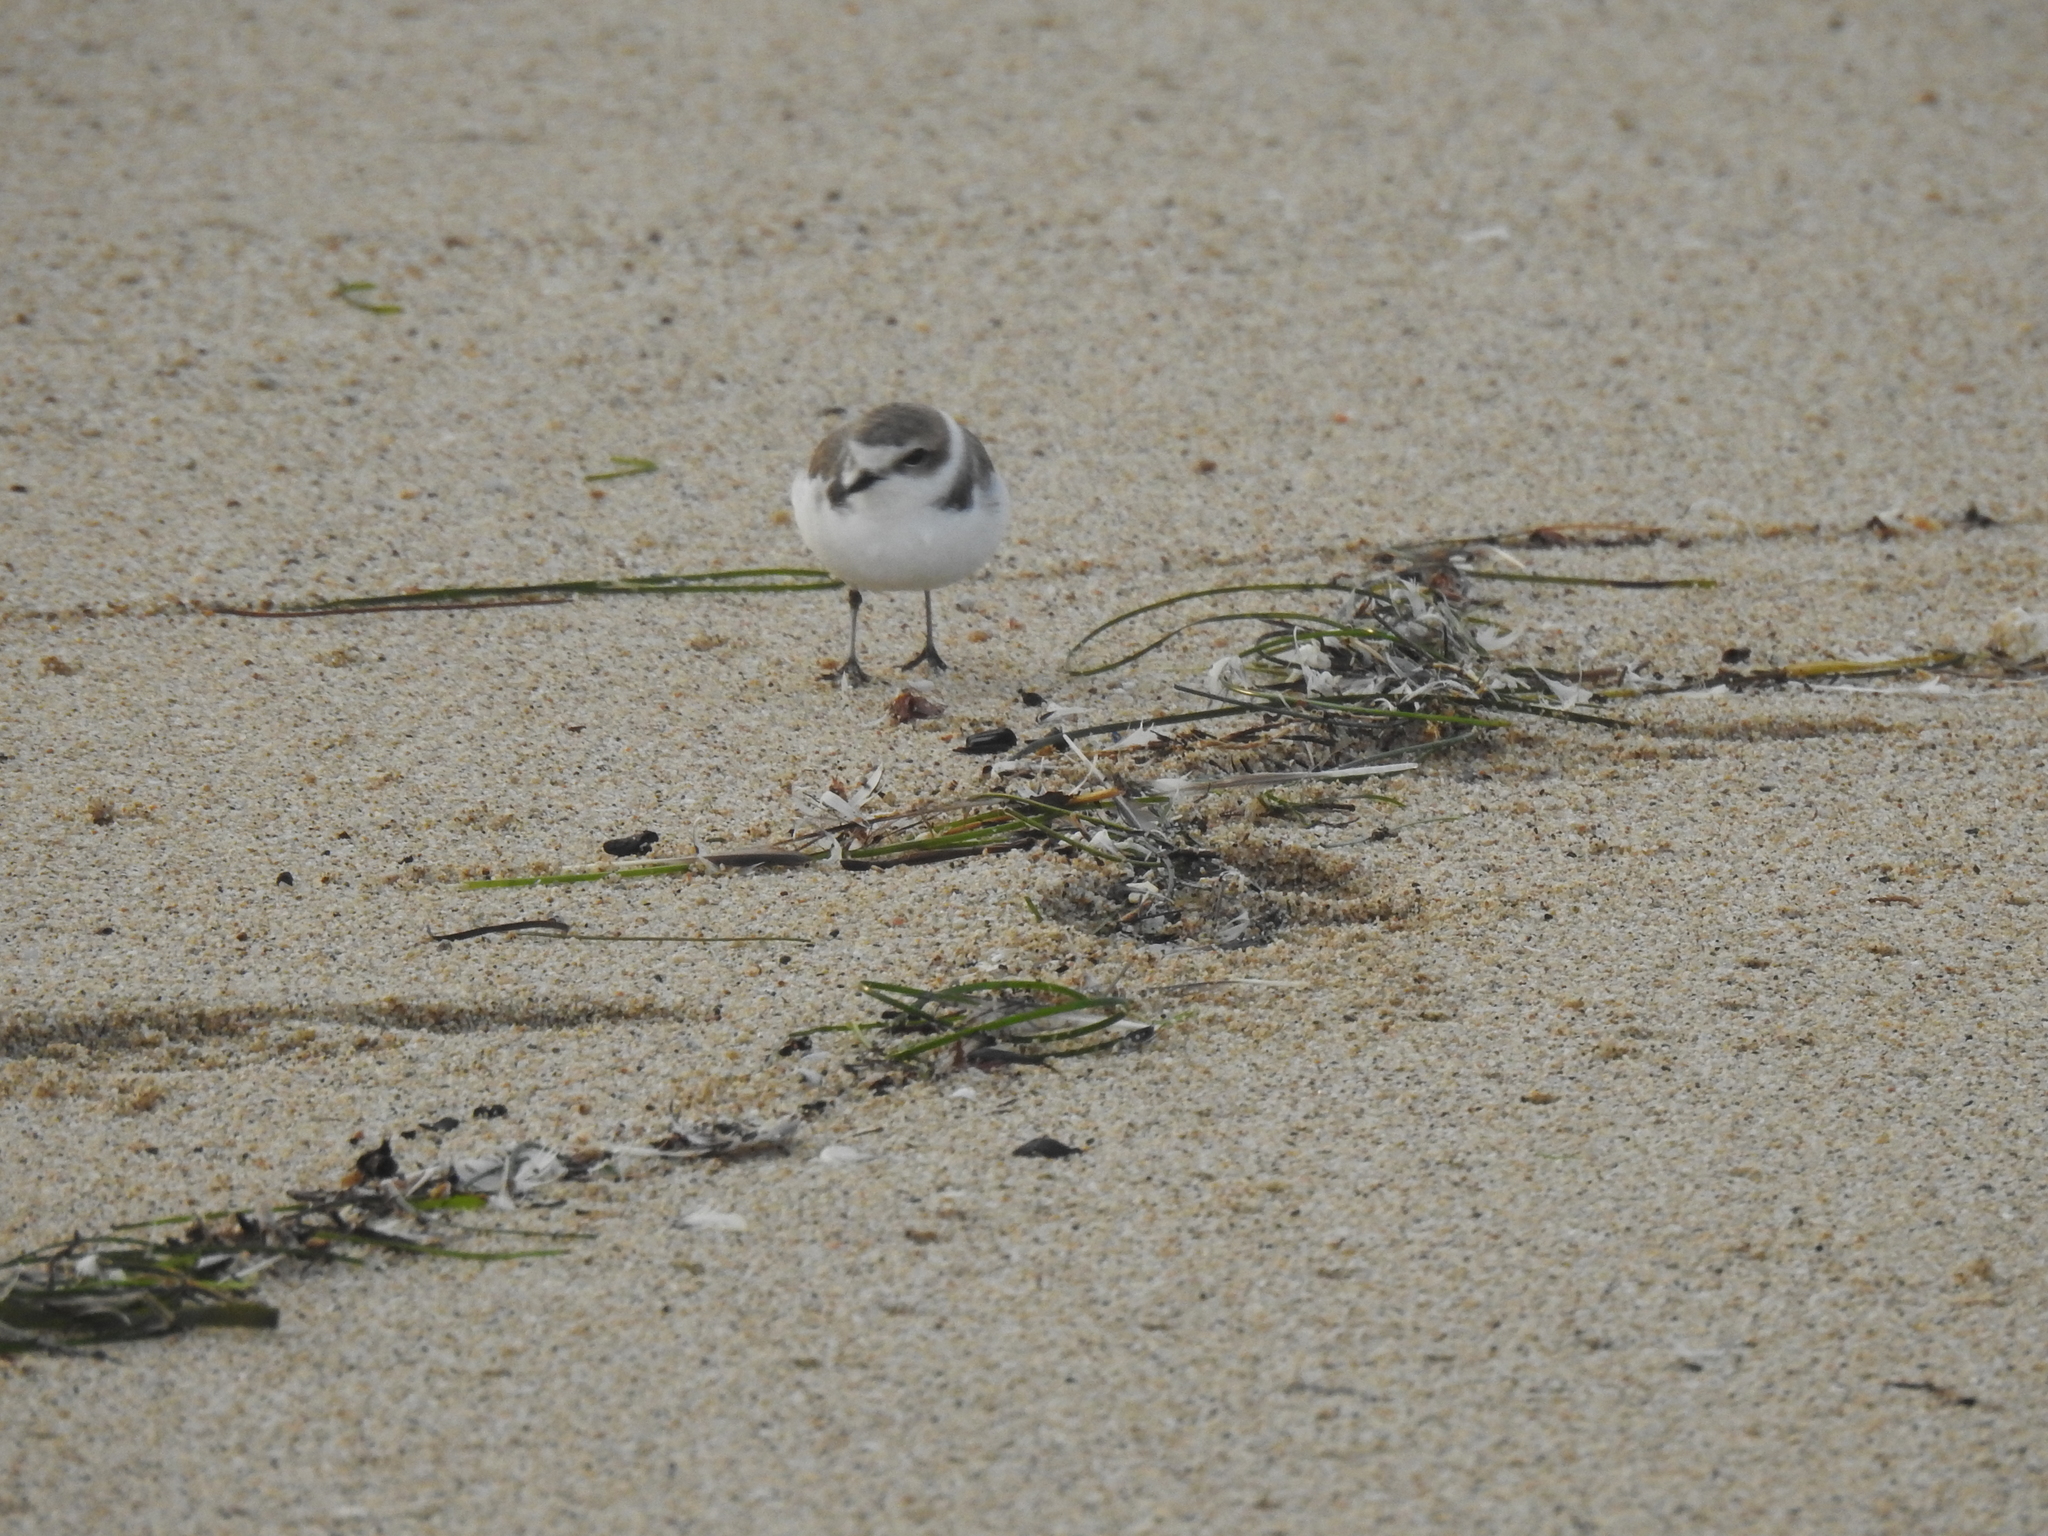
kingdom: Animalia
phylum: Chordata
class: Aves
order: Charadriiformes
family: Charadriidae
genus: Anarhynchus
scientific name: Anarhynchus
